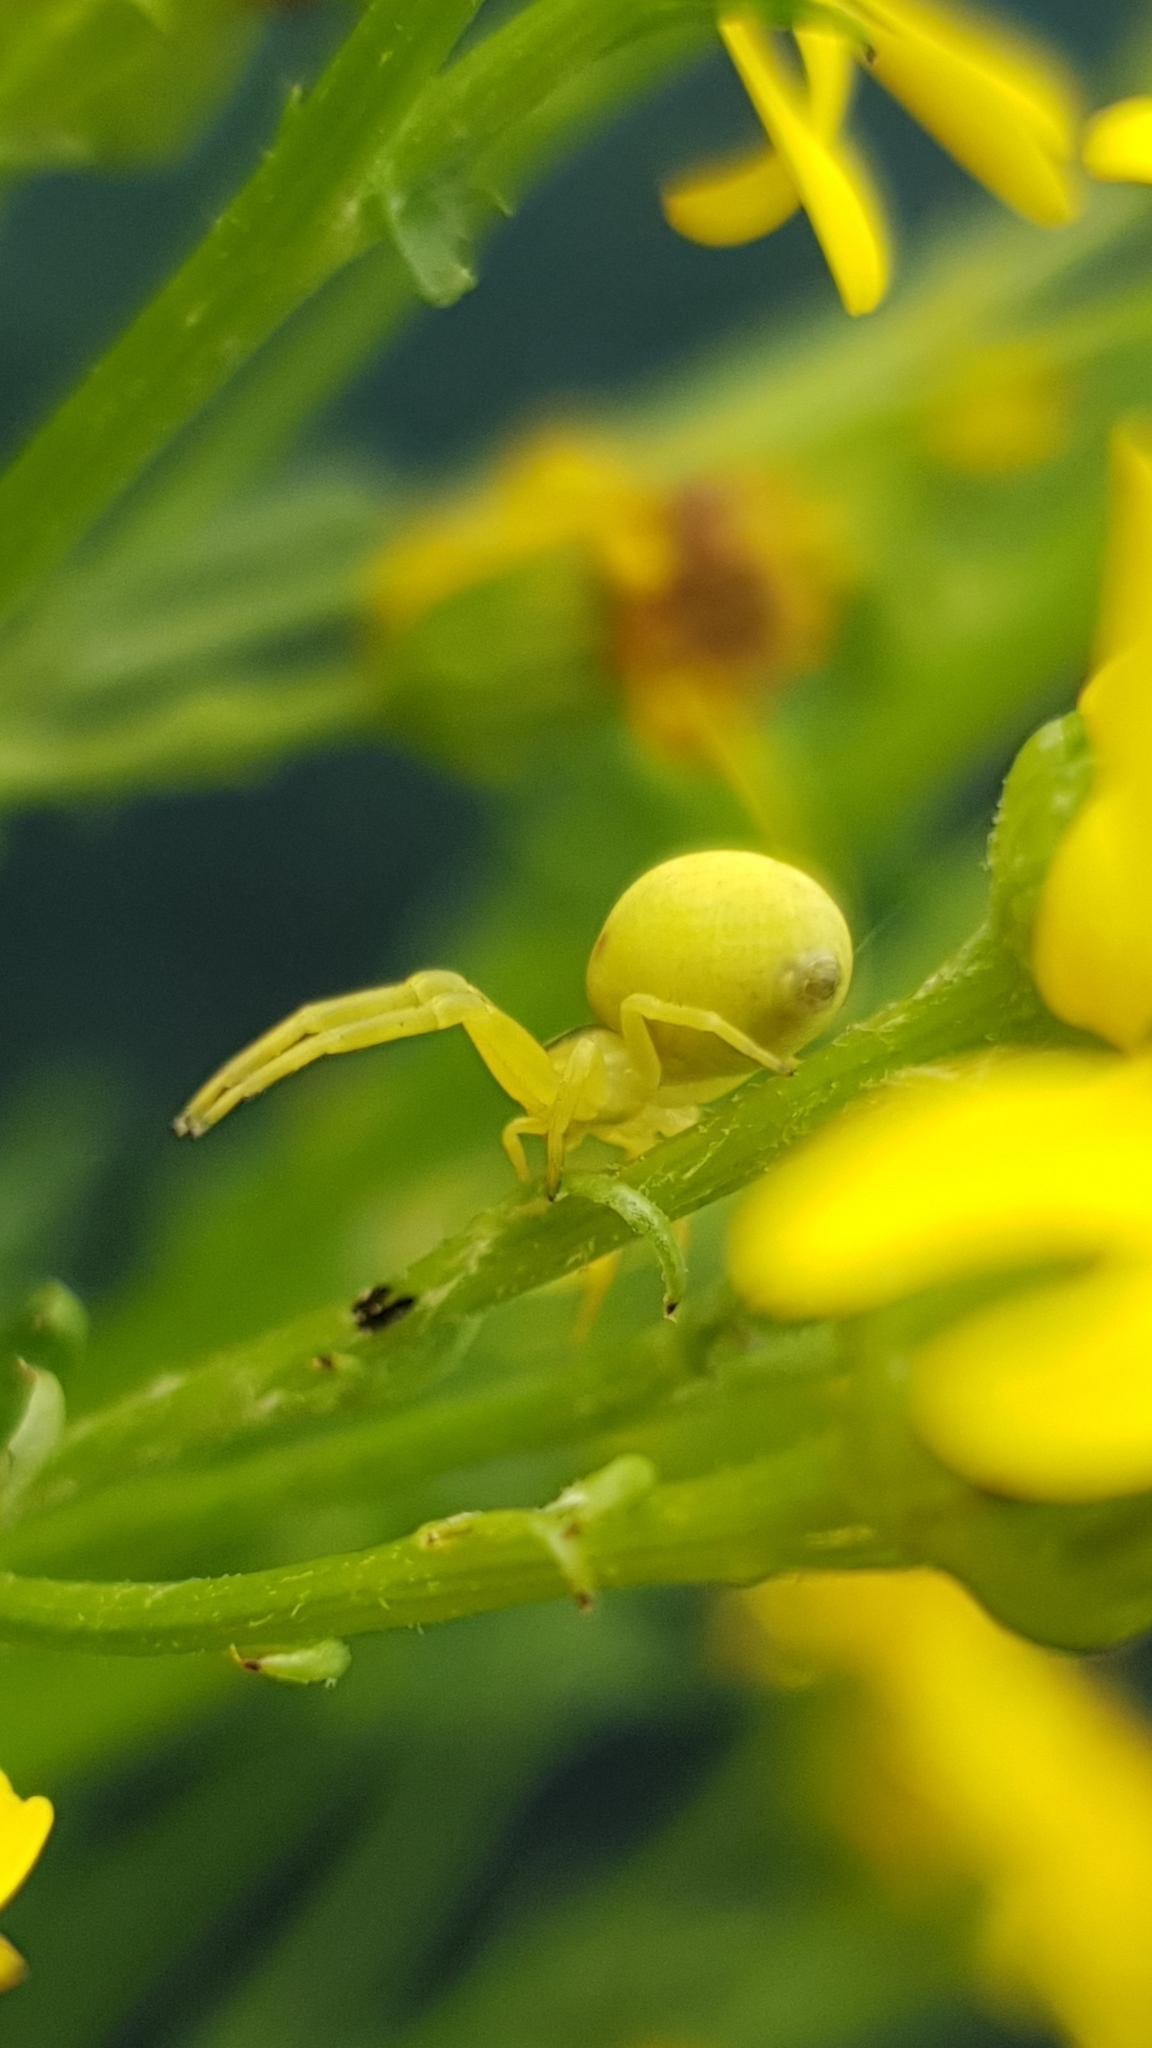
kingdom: Animalia
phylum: Arthropoda
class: Arachnida
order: Araneae
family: Thomisidae
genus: Misumena
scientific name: Misumena vatia
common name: Goldenrod crab spider
